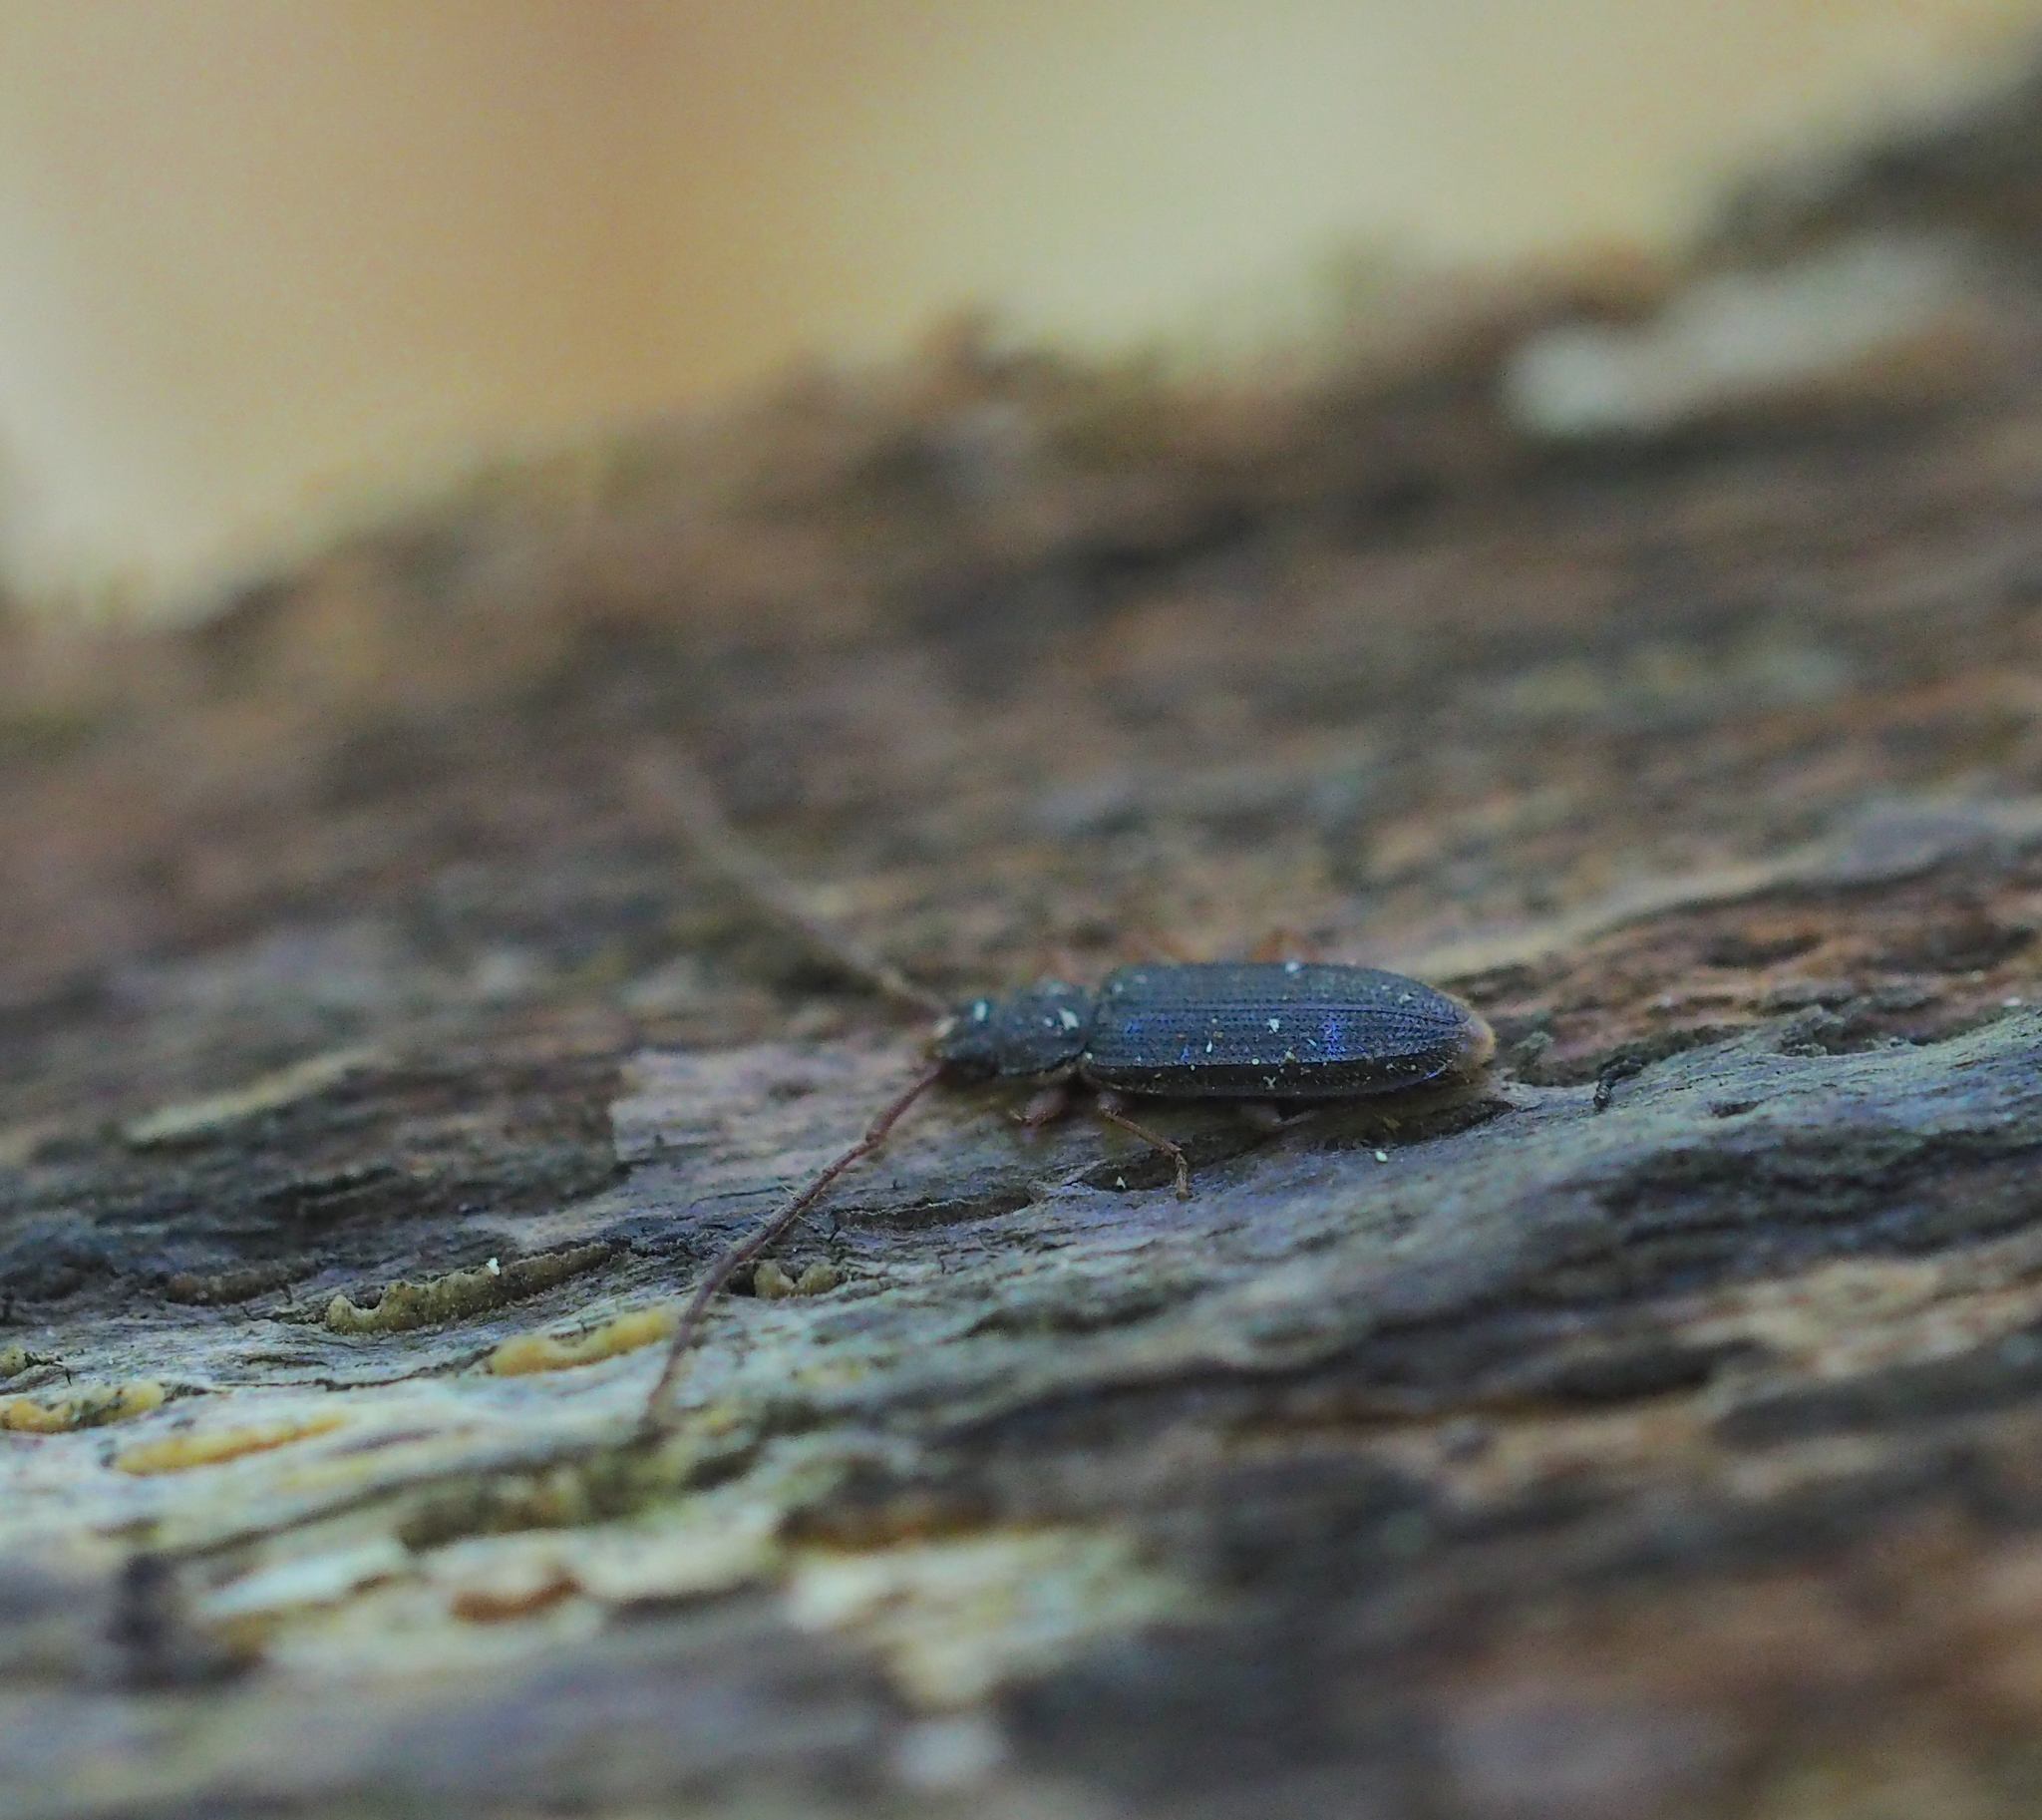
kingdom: Animalia
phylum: Arthropoda
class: Insecta
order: Coleoptera
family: Silvanidae
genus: Uleiota
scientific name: Uleiota planatus
